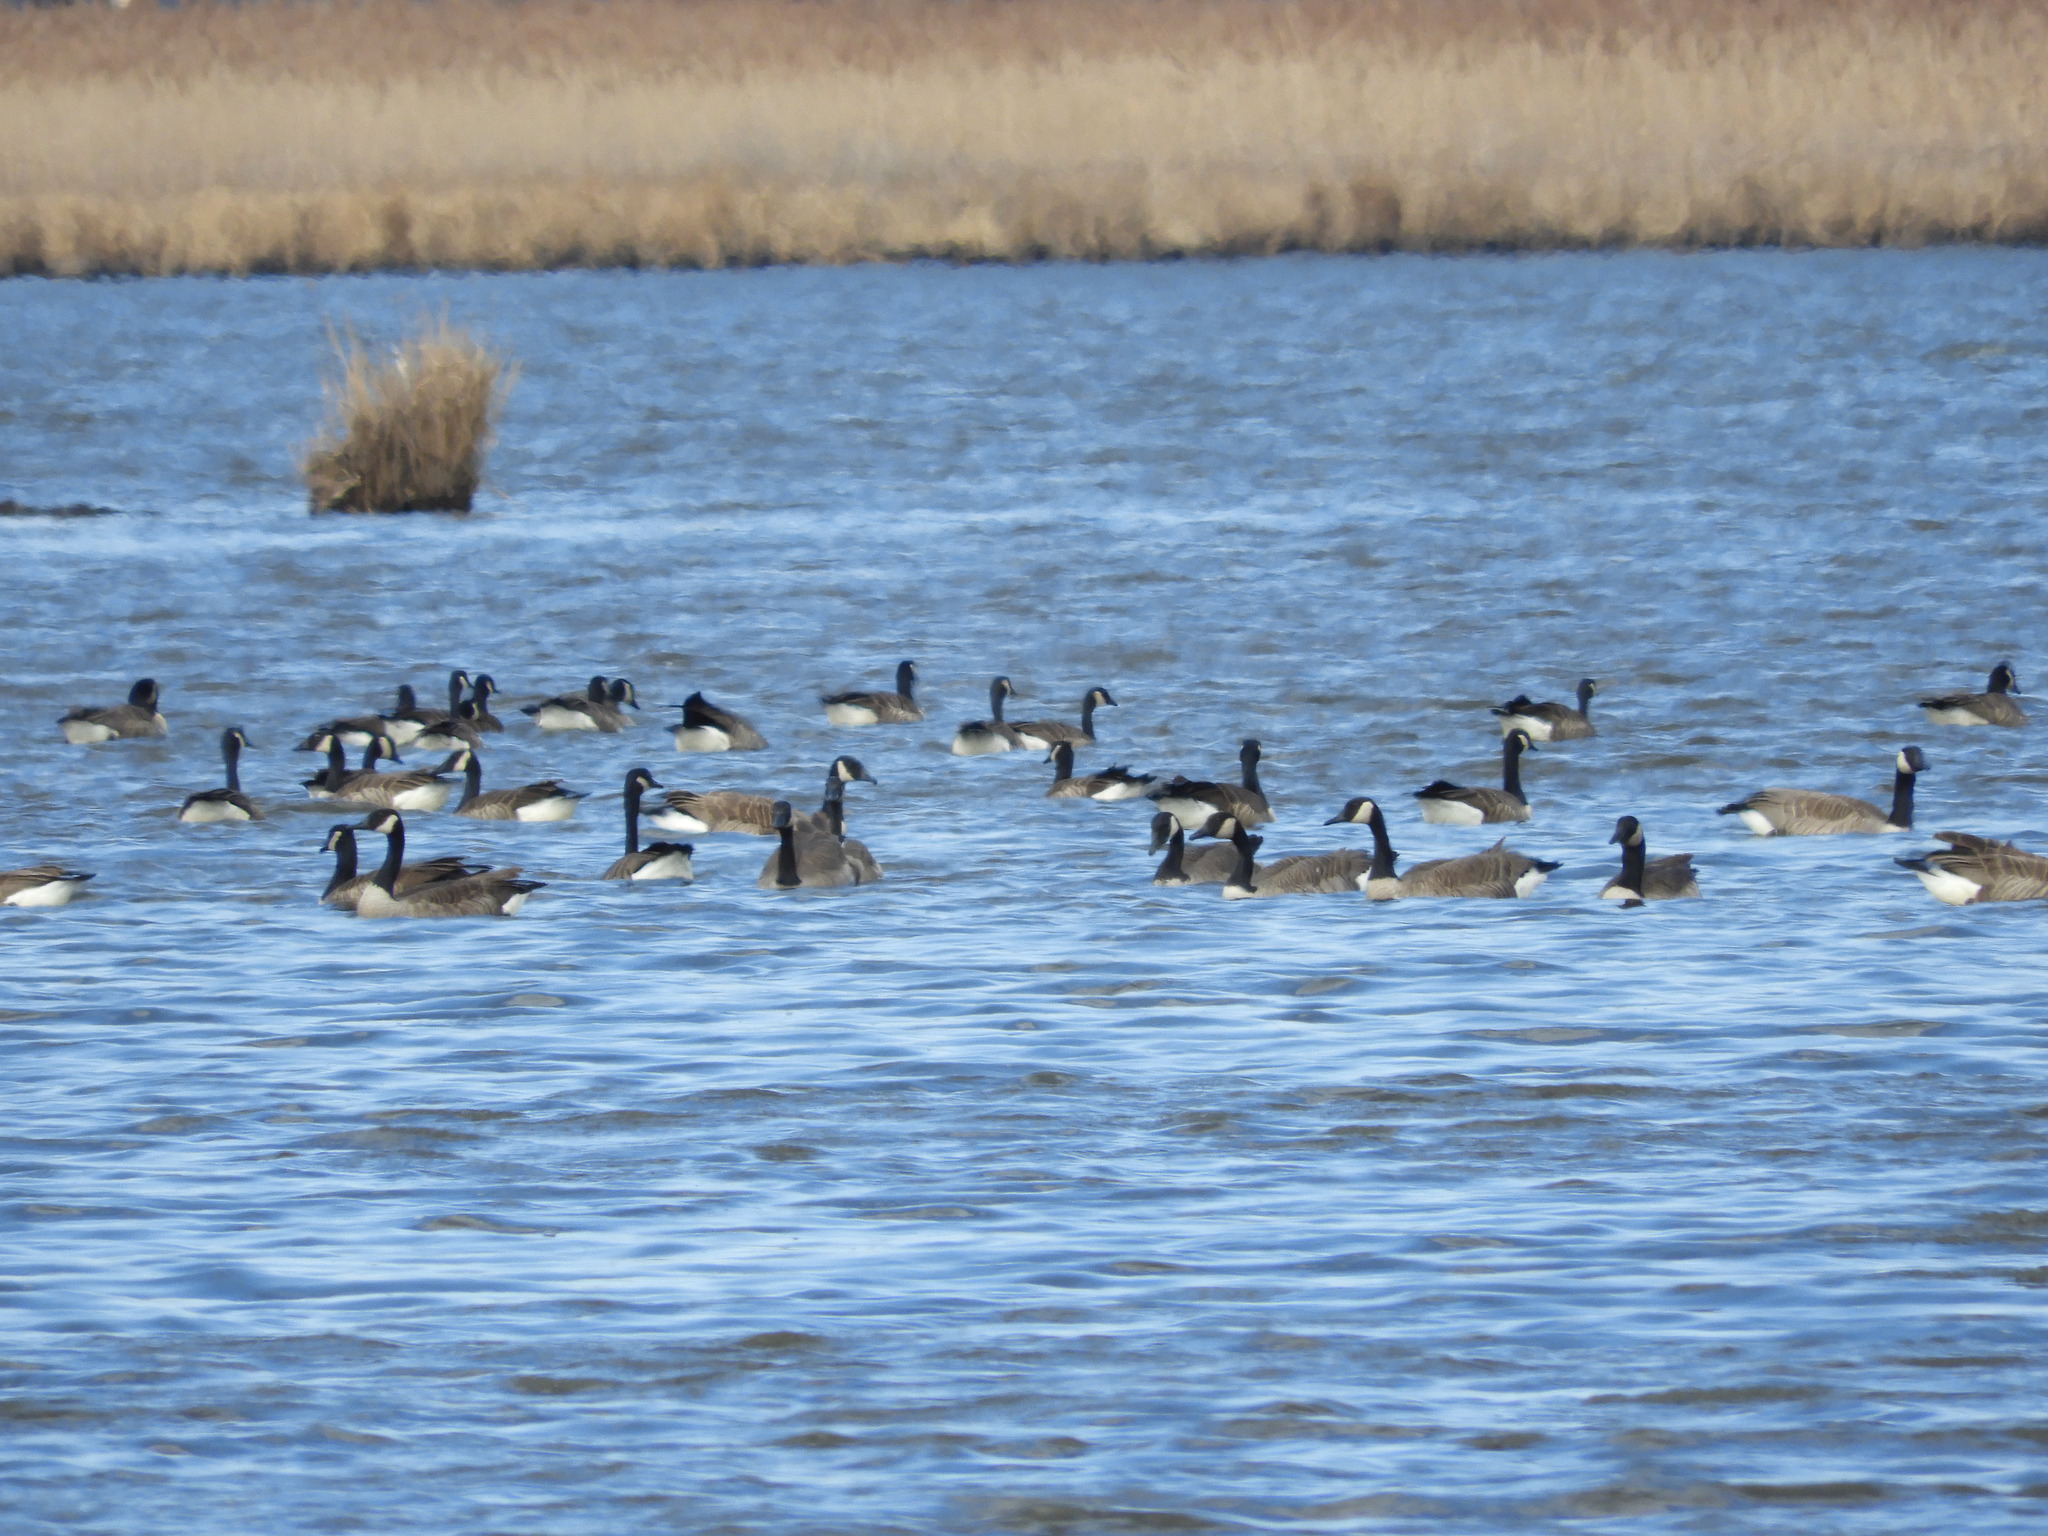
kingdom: Animalia
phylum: Chordata
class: Aves
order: Anseriformes
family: Anatidae
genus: Branta
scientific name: Branta canadensis
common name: Canada goose
